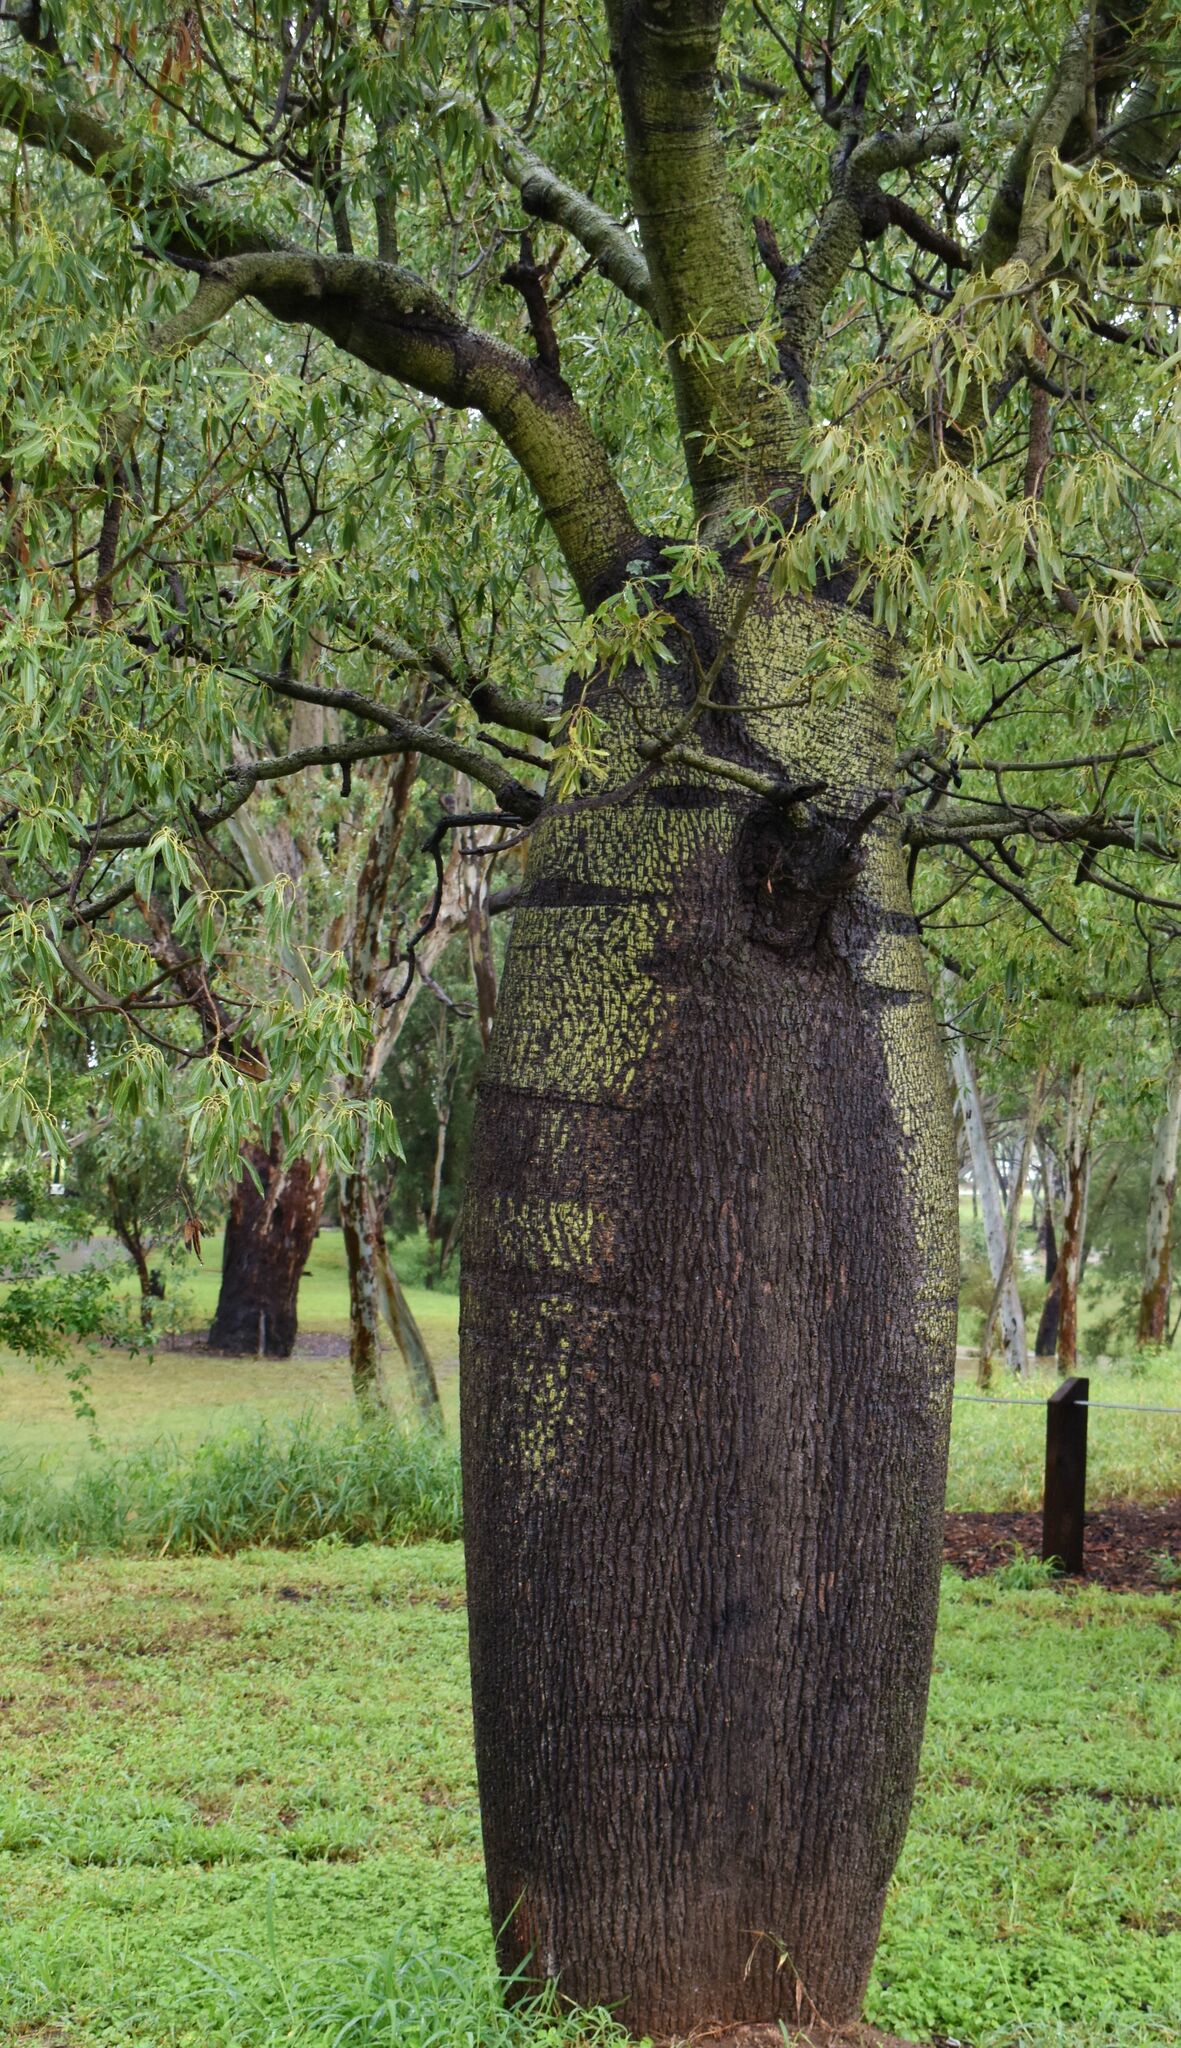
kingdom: Plantae
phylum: Tracheophyta
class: Magnoliopsida
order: Malvales
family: Malvaceae
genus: Brachychiton
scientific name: Brachychiton rupestris
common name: Queensland bottletree
